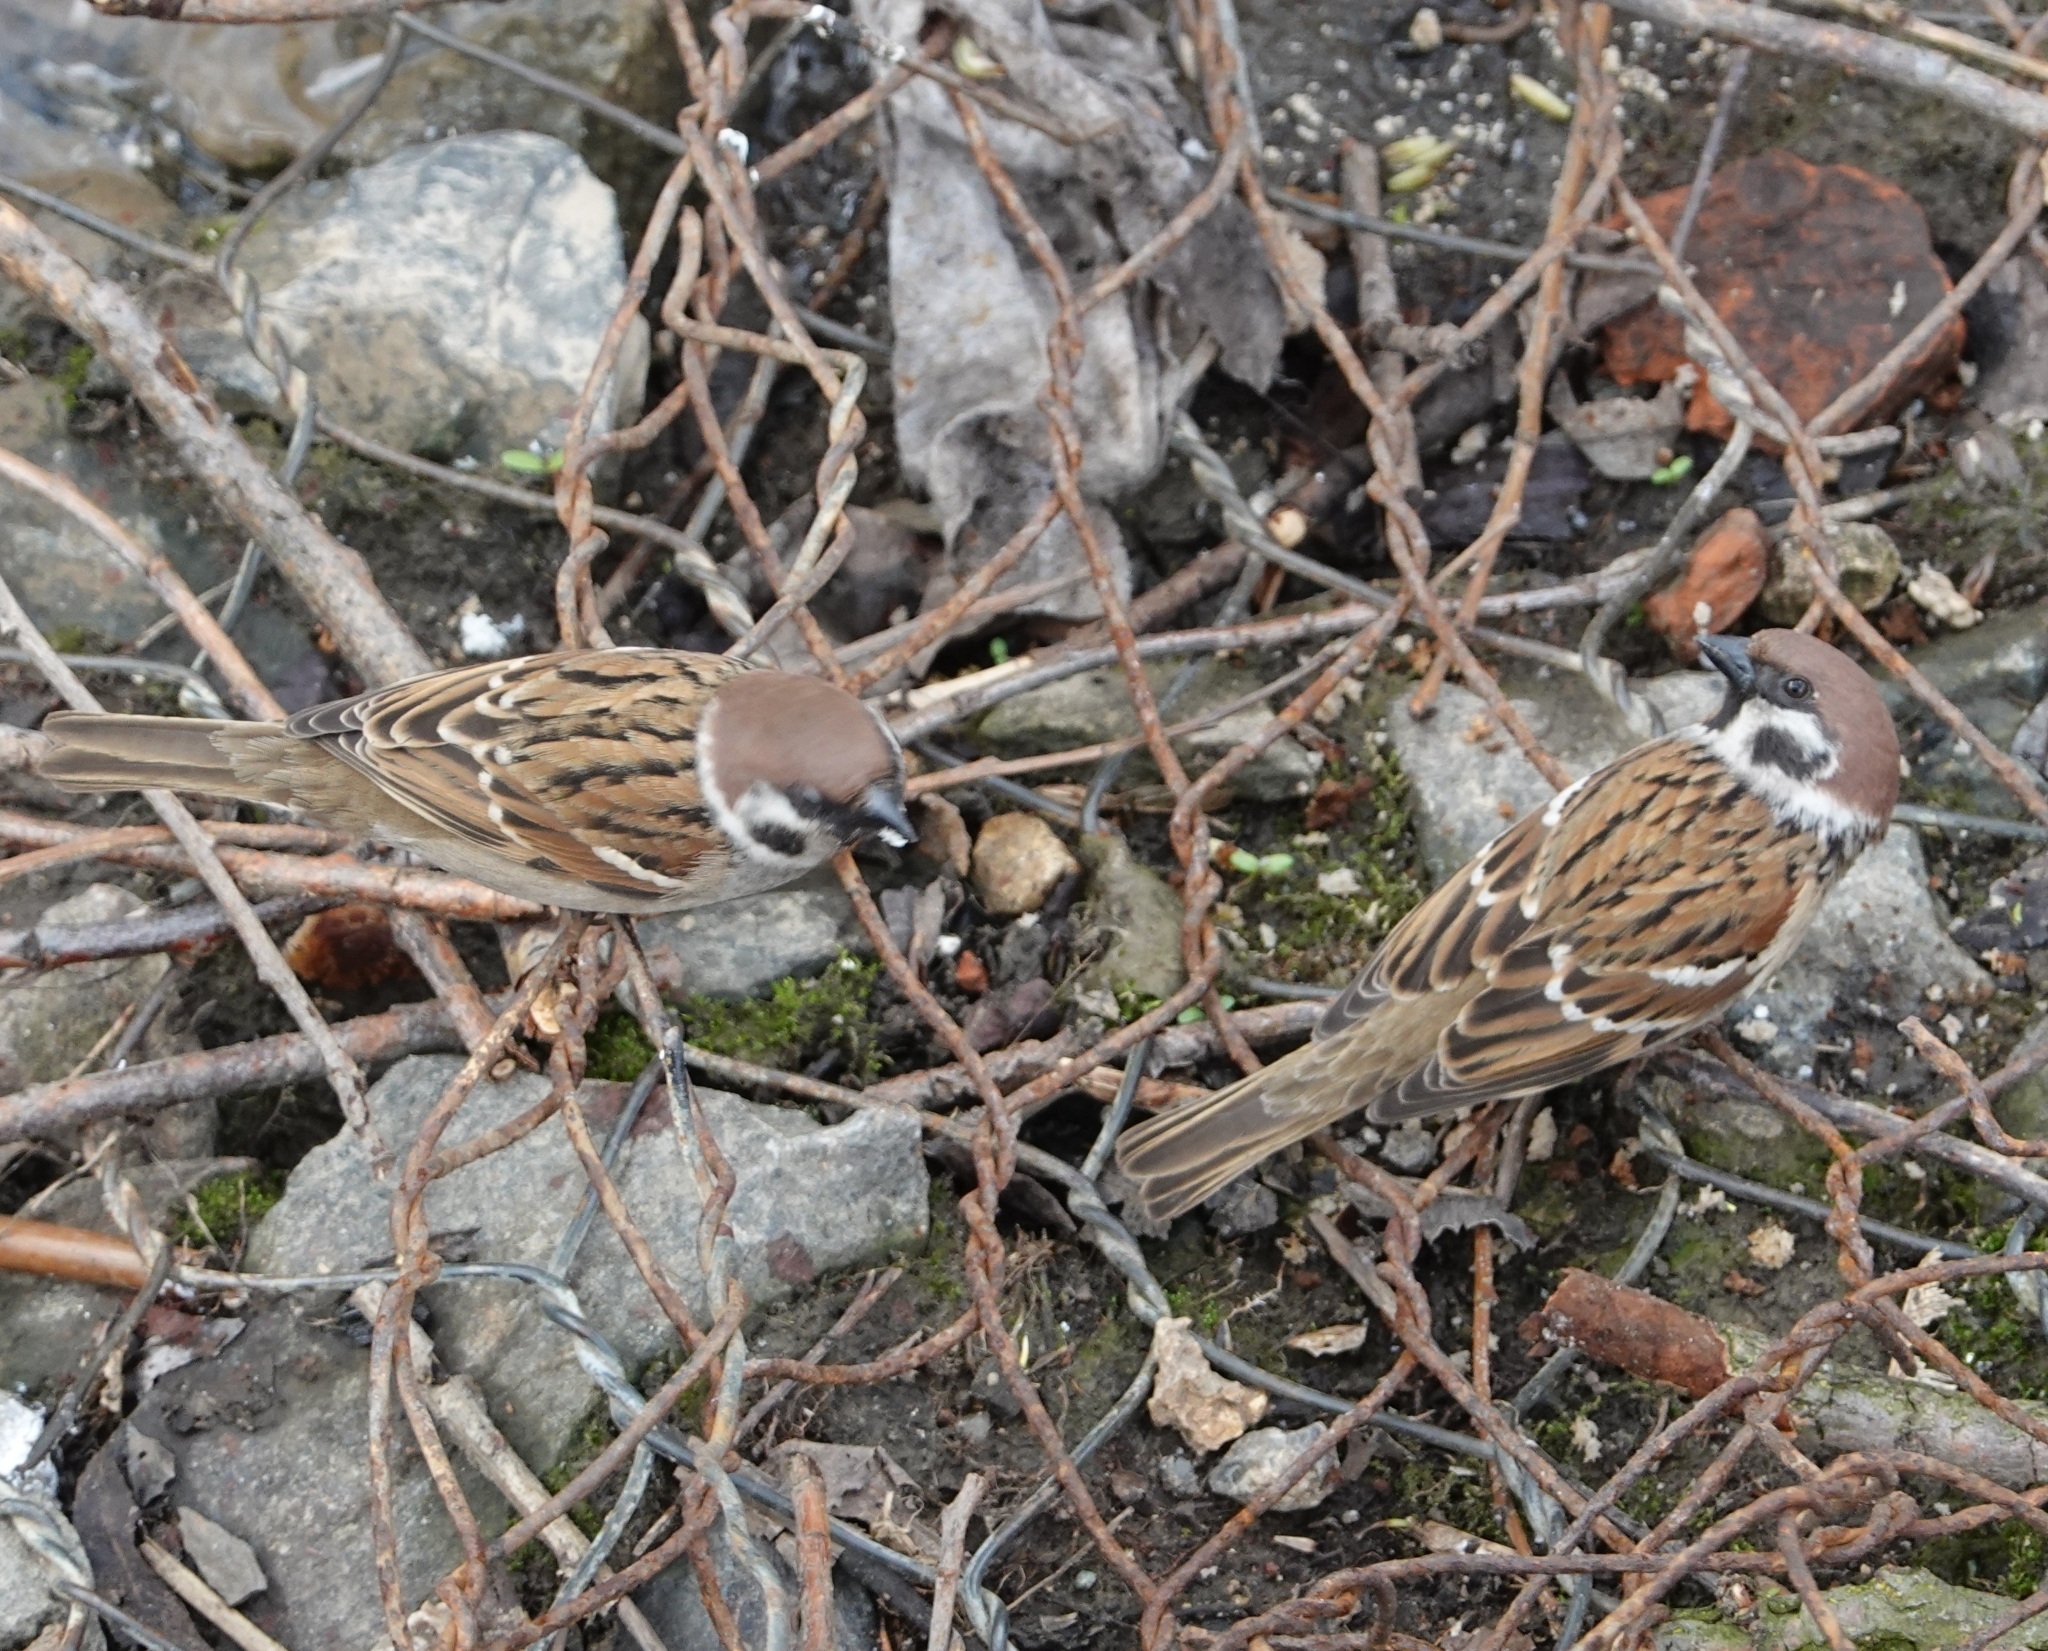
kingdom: Animalia
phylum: Chordata
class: Aves
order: Passeriformes
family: Passeridae
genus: Passer
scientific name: Passer montanus
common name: Eurasian tree sparrow
